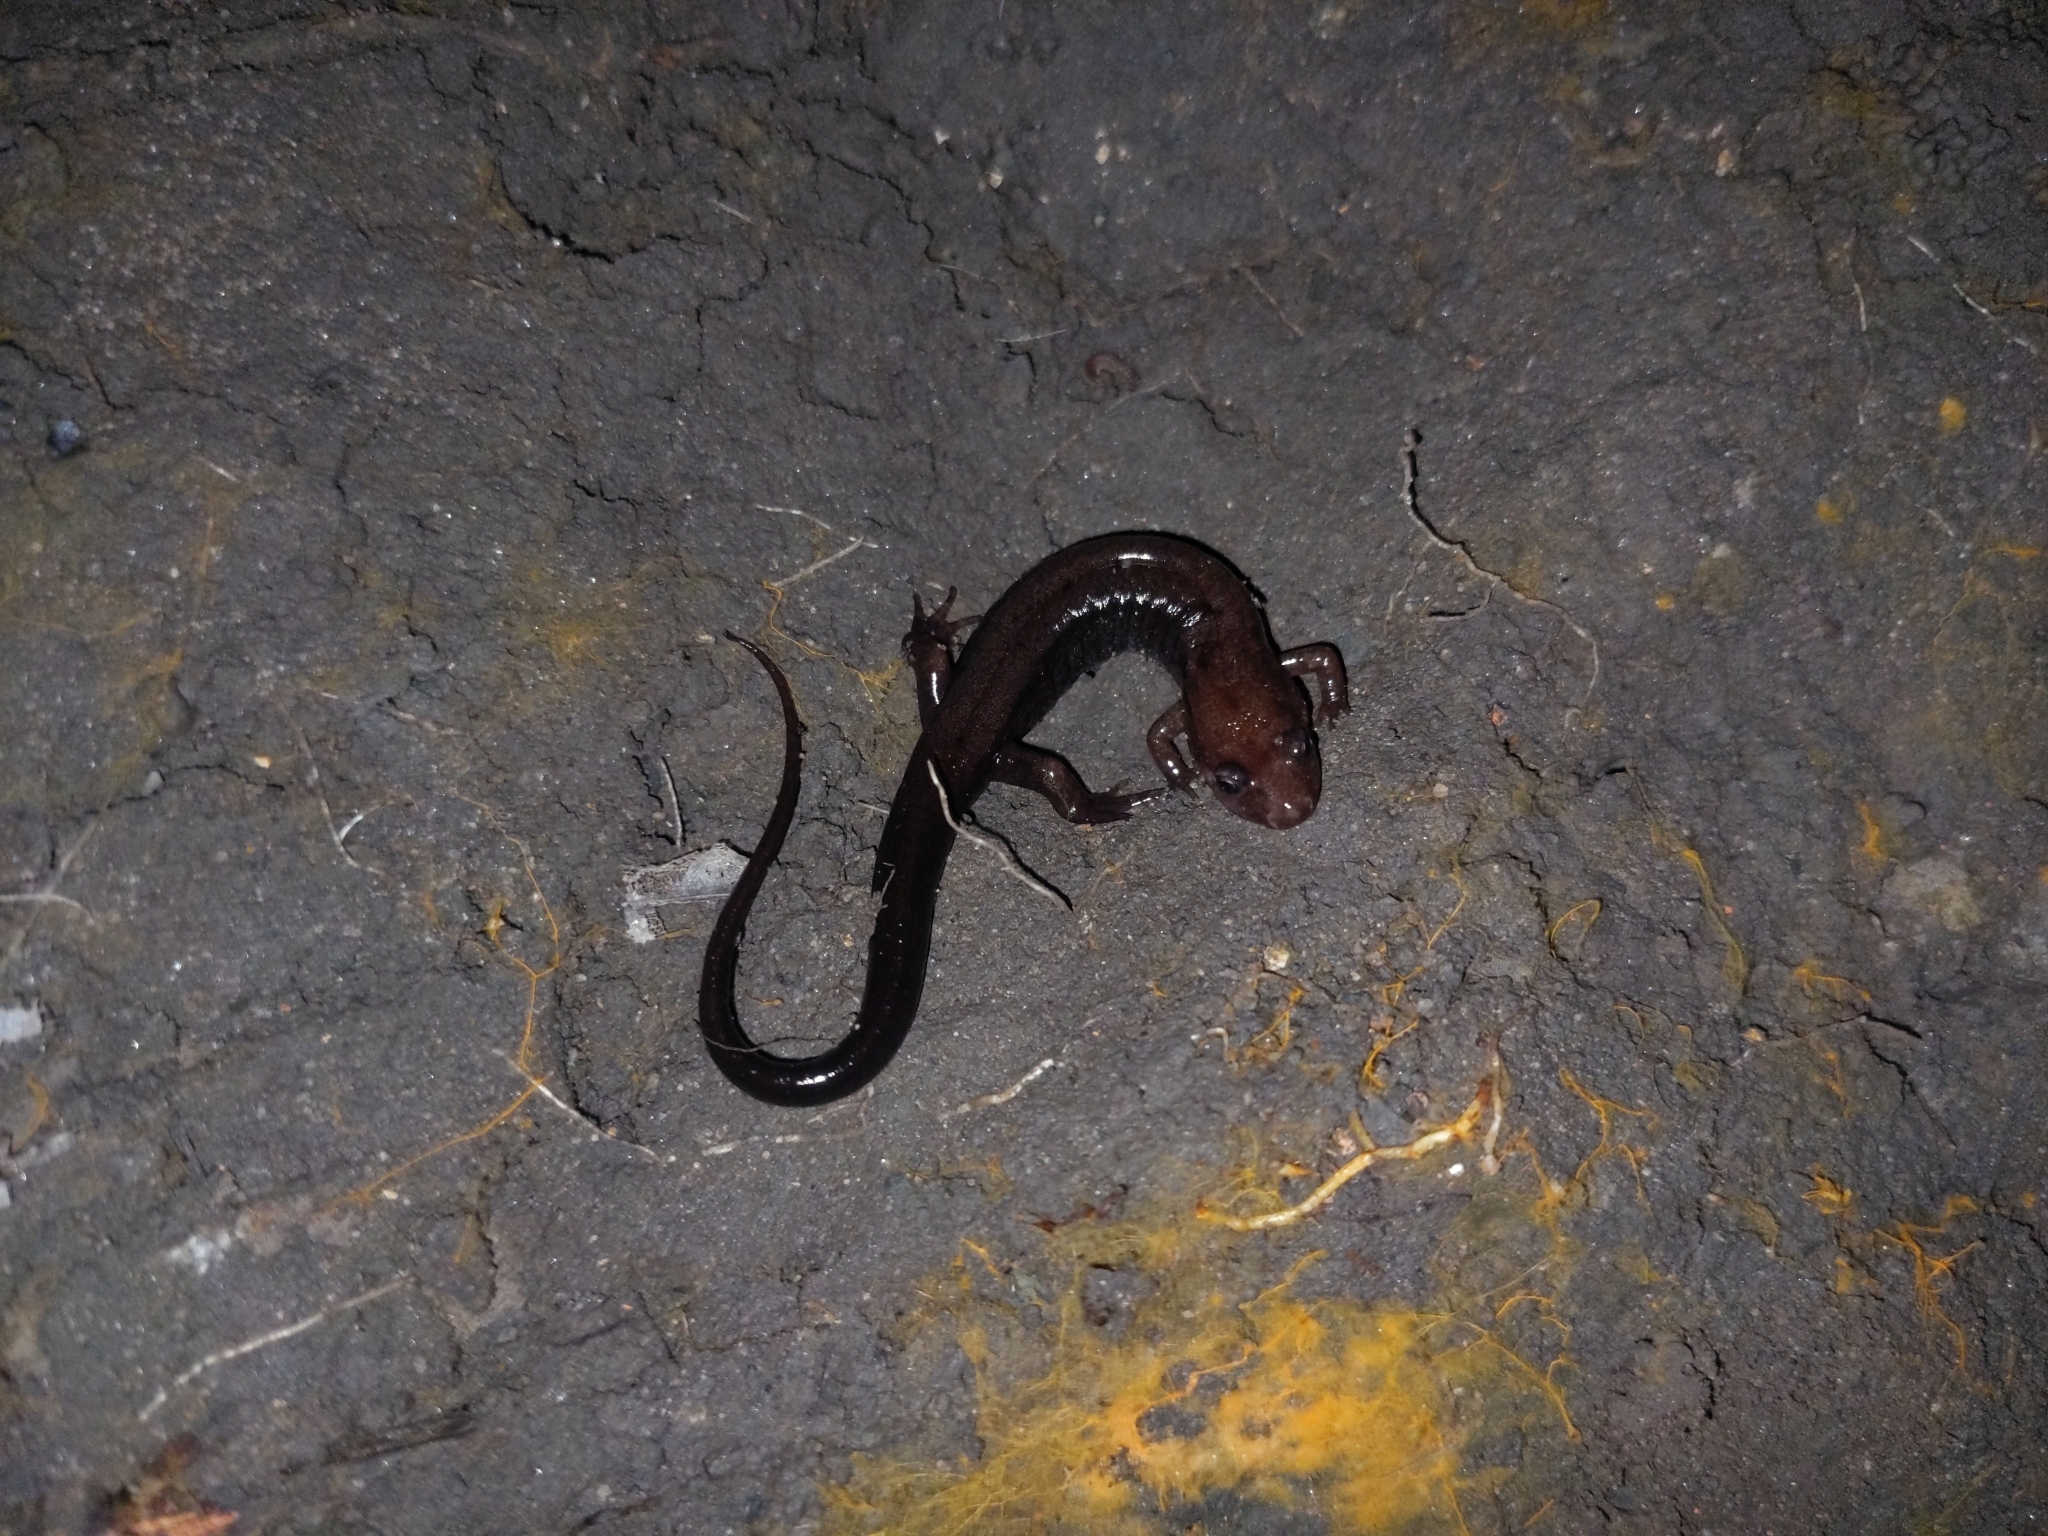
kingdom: Animalia
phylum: Chordata
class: Amphibia
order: Caudata
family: Plethodontidae
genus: Desmognathus
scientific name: Desmognathus ochrophaeus
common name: Allegheny mountain dusky salamander
